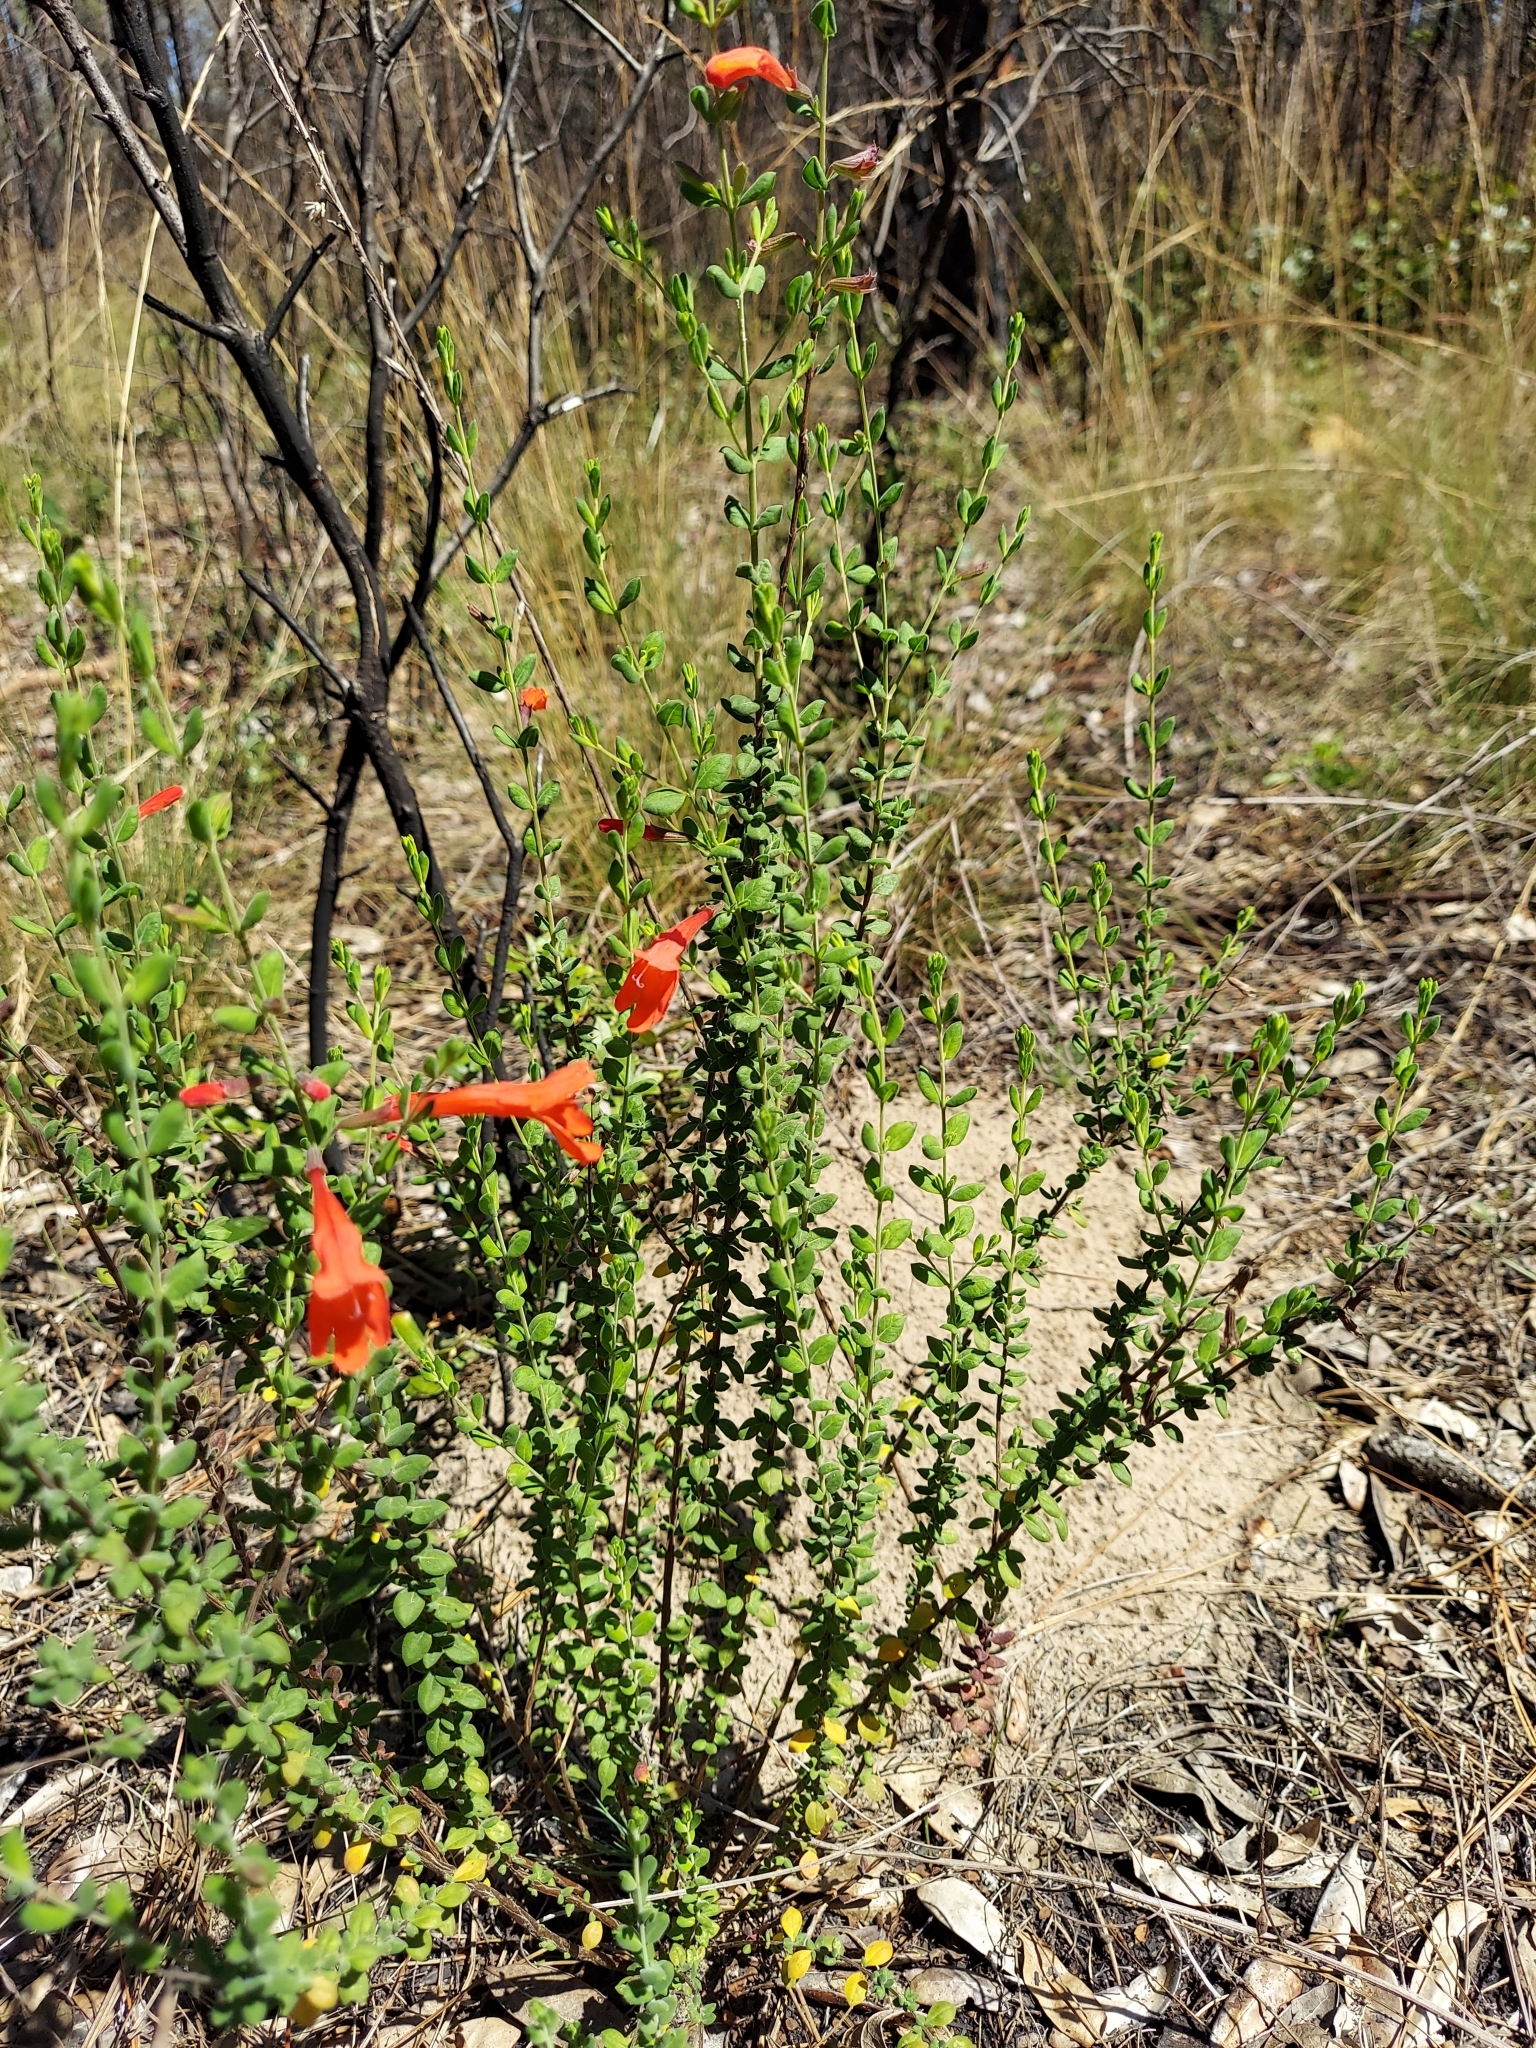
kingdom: Plantae
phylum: Tracheophyta
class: Magnoliopsida
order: Lamiales
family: Lamiaceae
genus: Clinopodium
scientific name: Clinopodium coccineum
